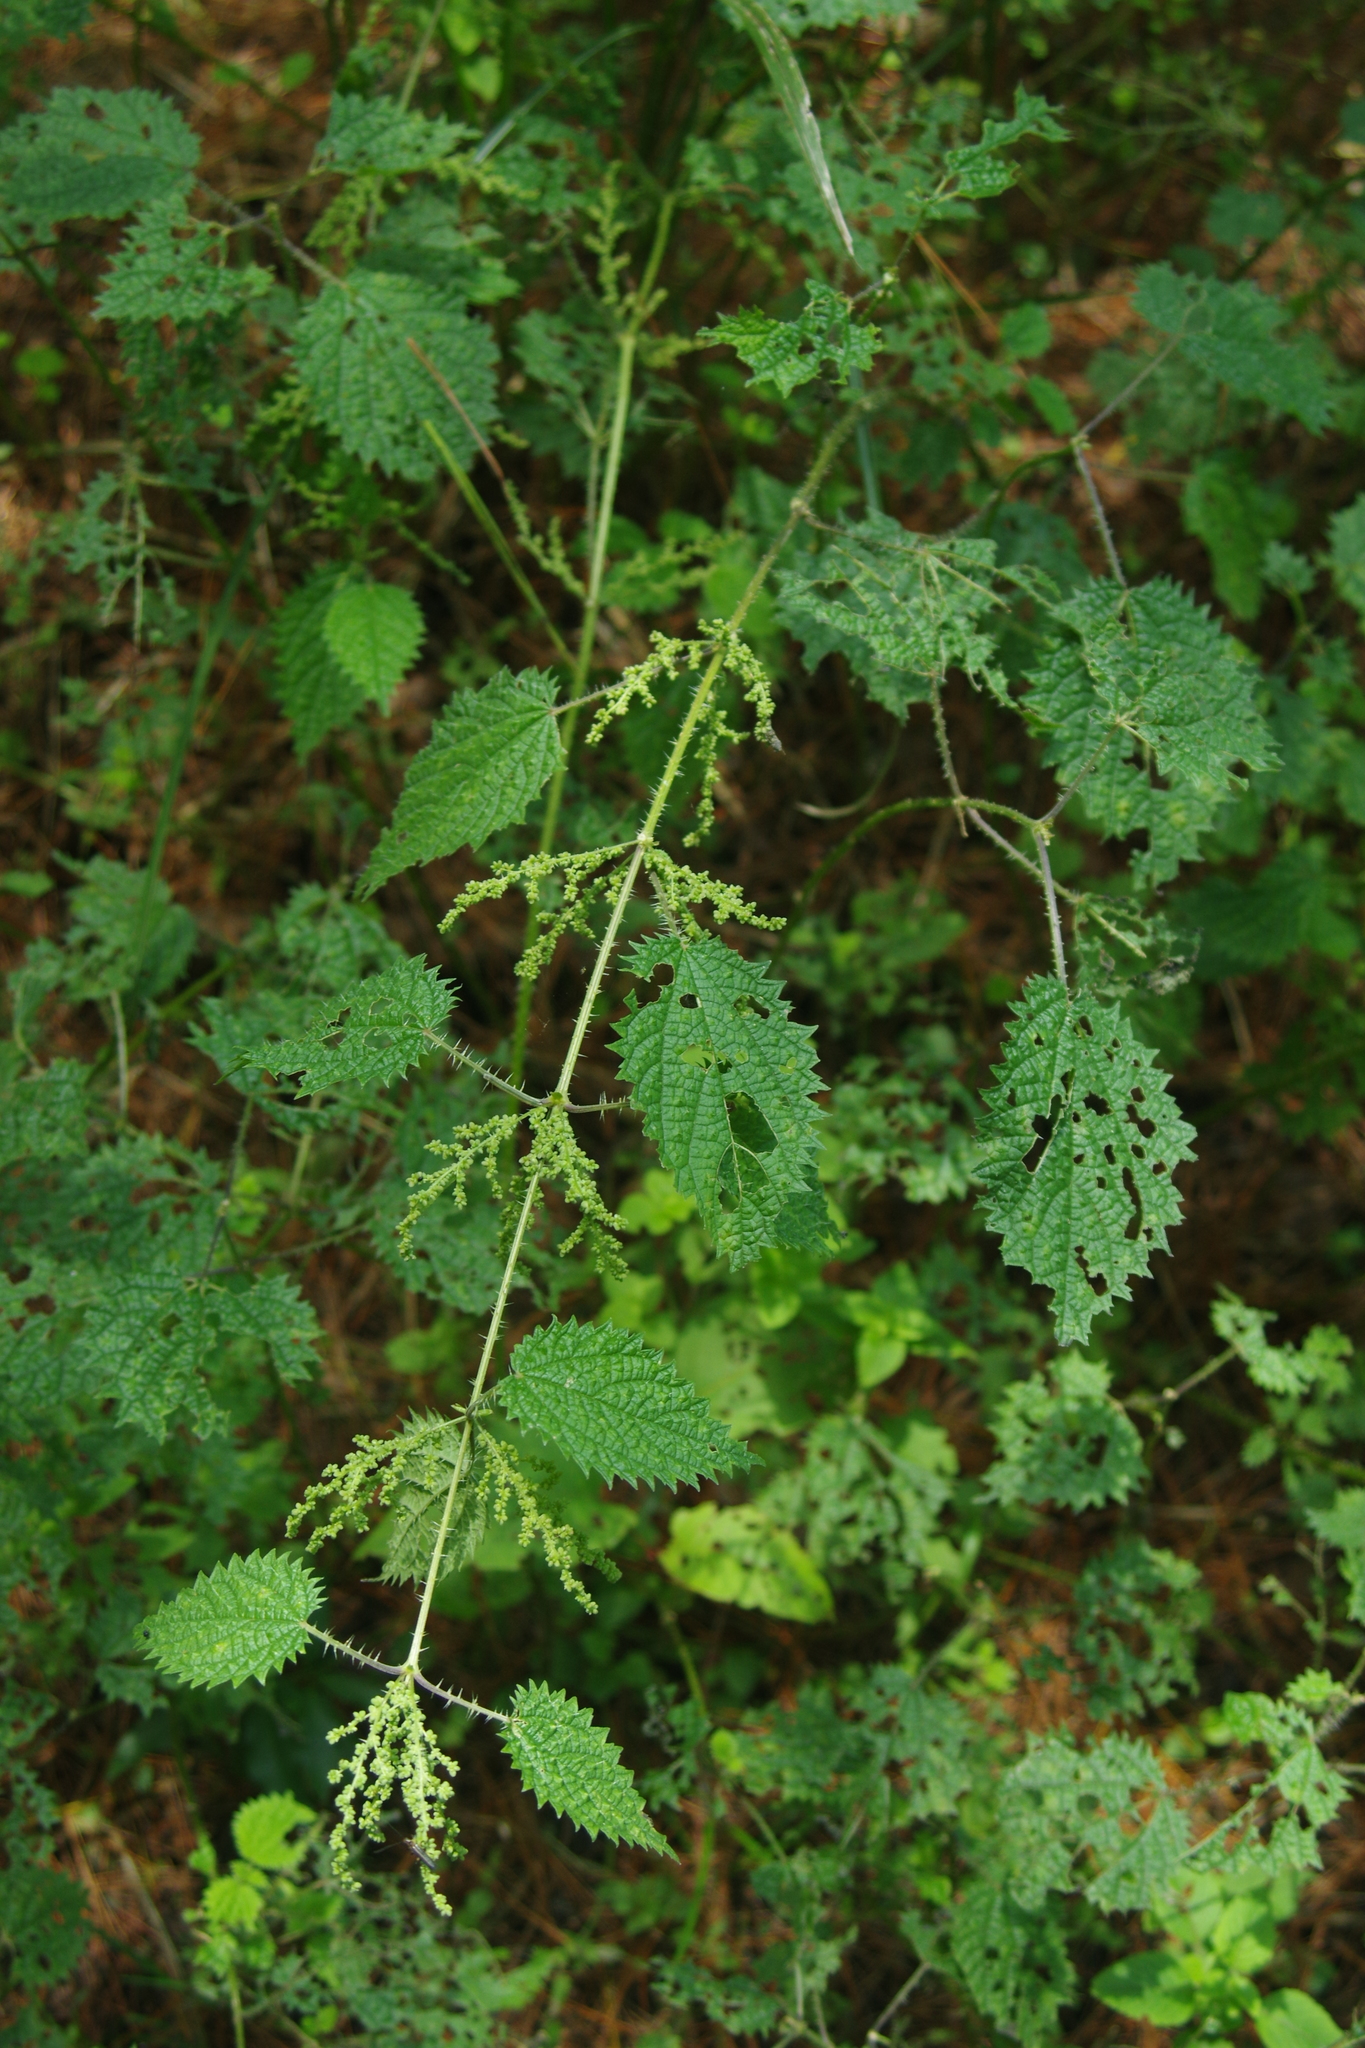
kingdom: Plantae
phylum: Tracheophyta
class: Magnoliopsida
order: Rosales
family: Urticaceae
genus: Urtica
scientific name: Urtica thunbergiana
